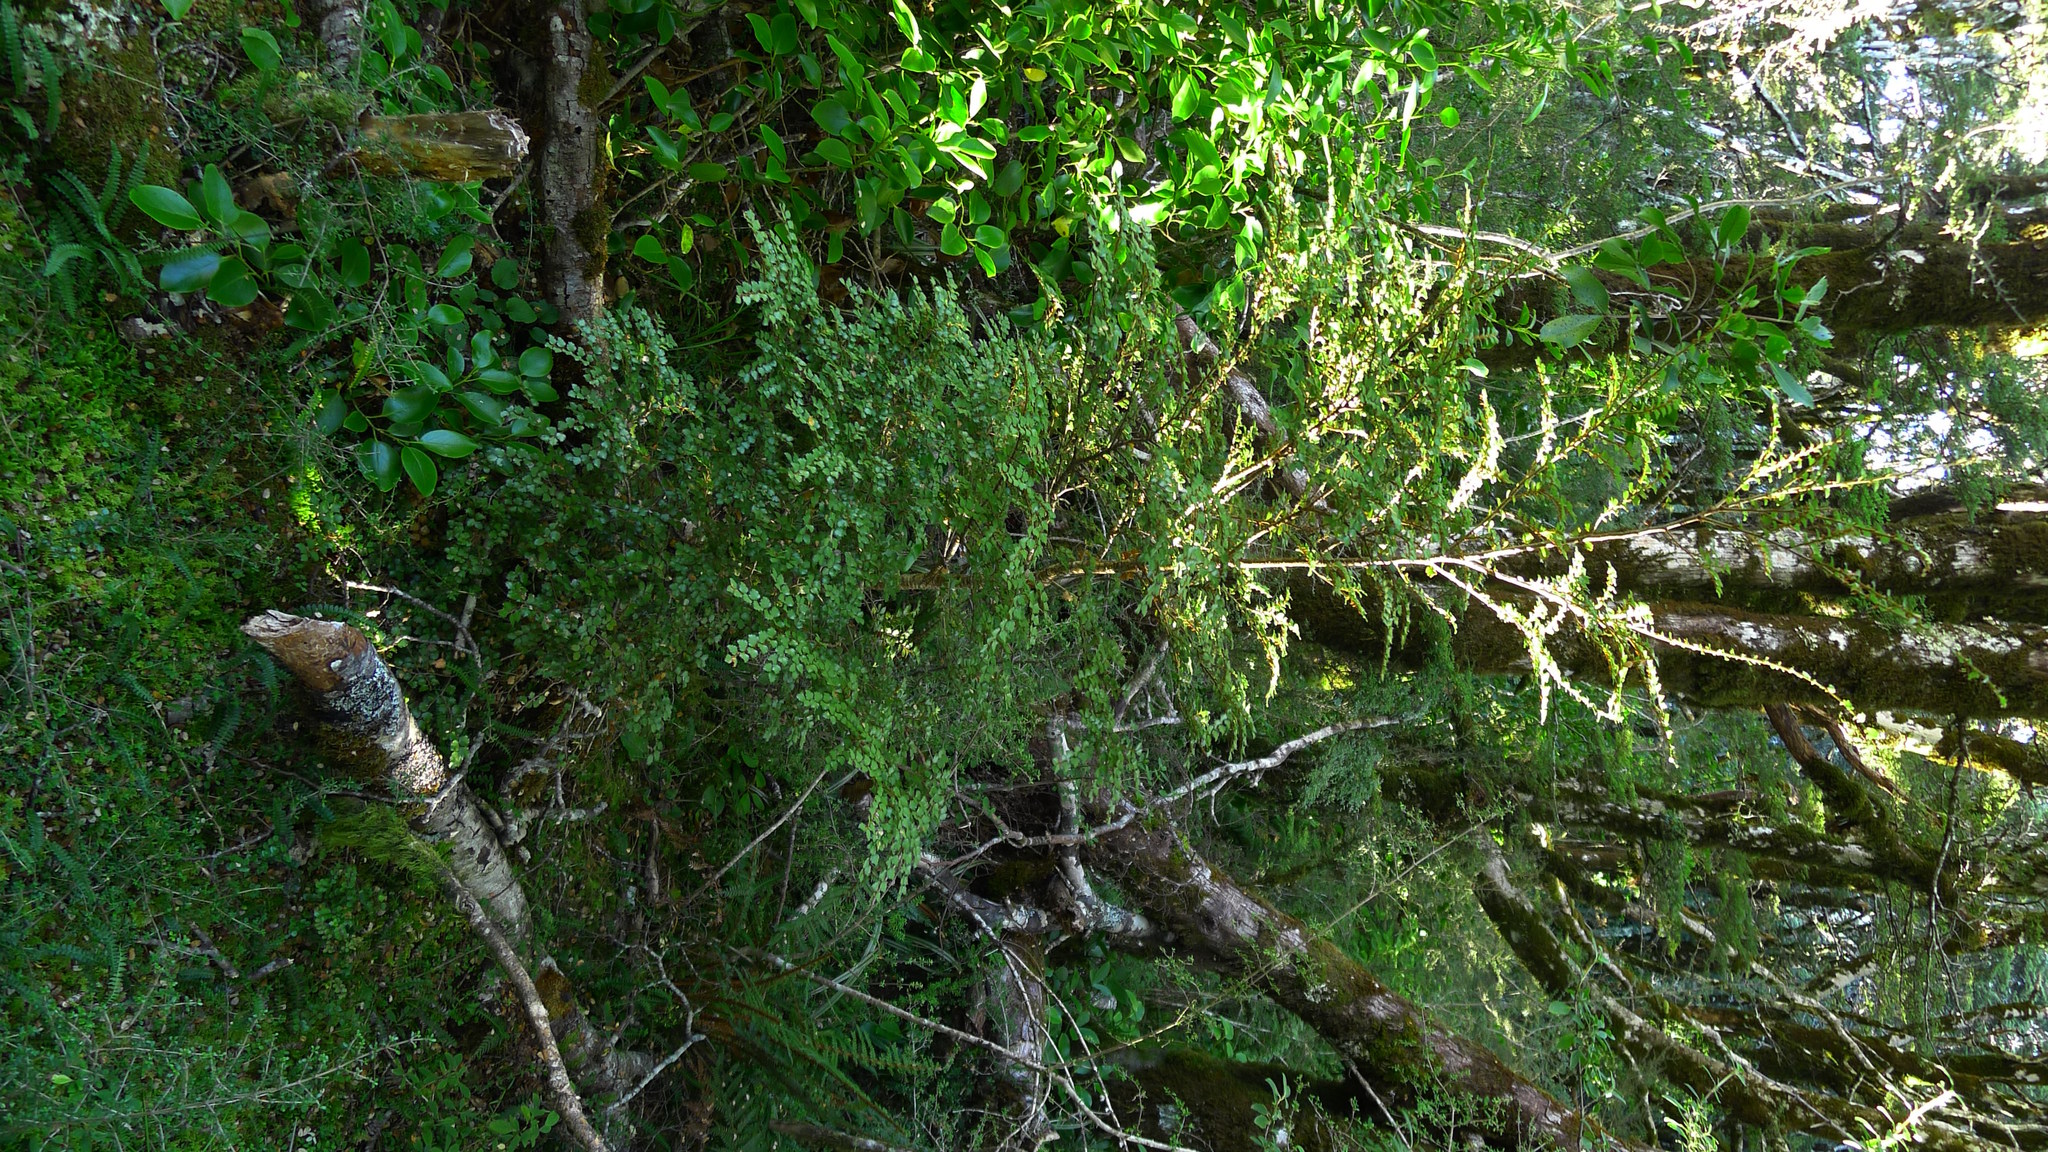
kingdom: Plantae
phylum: Tracheophyta
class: Magnoliopsida
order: Fagales
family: Nothofagaceae
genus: Nothofagus
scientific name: Nothofagus menziesii
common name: Silver beech
